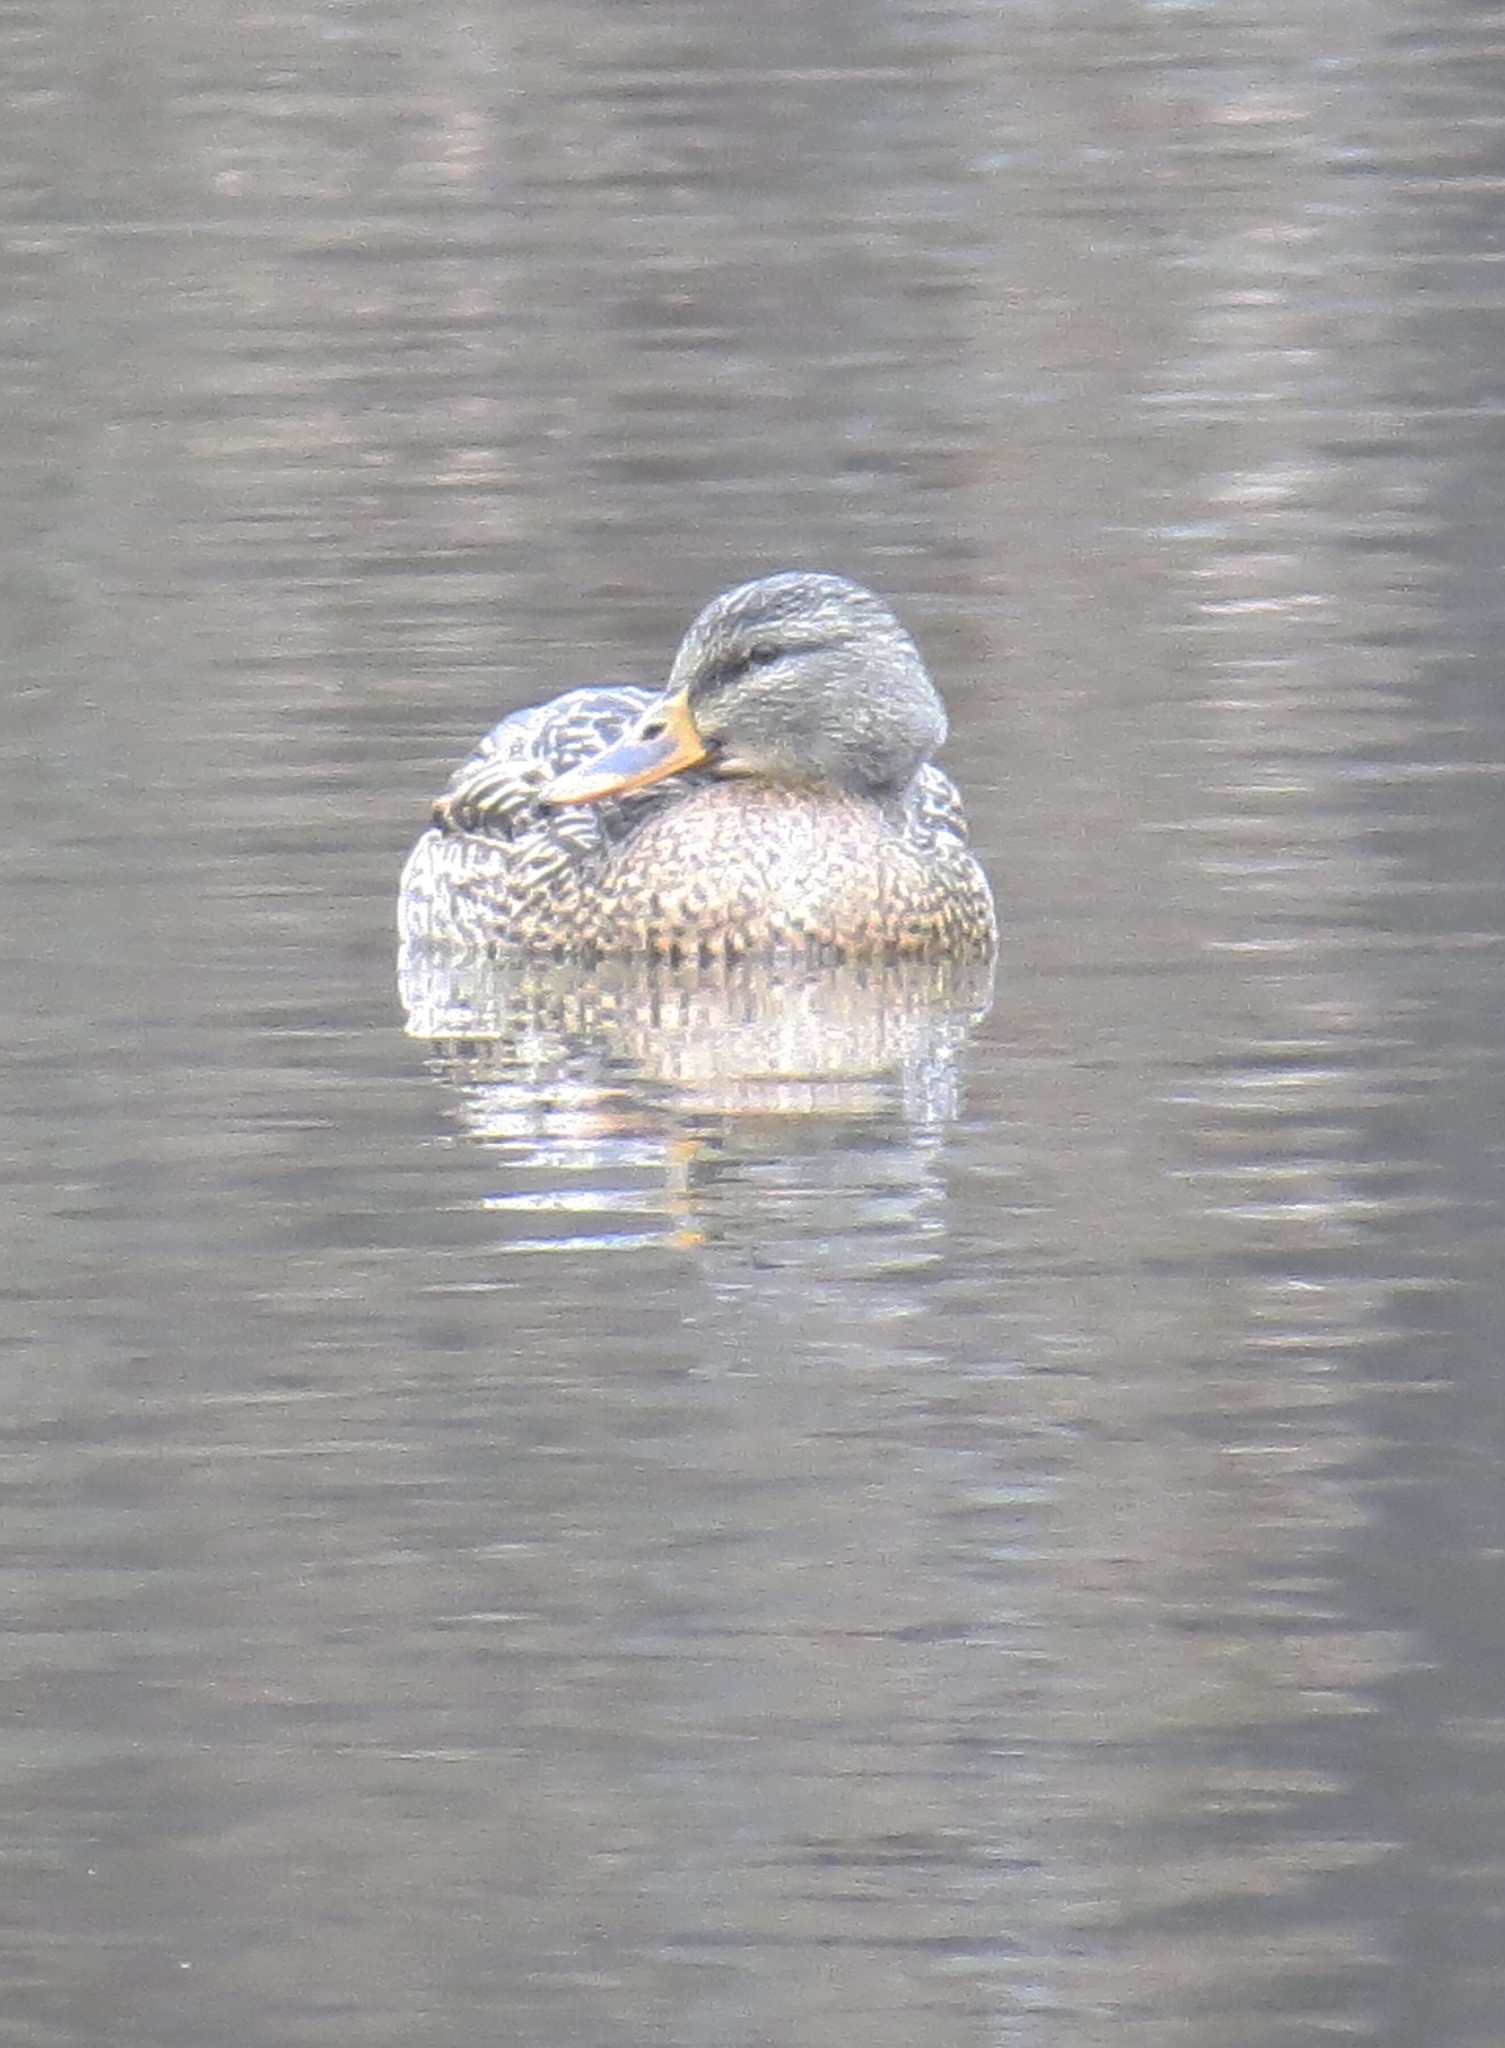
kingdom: Animalia
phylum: Chordata
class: Aves
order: Anseriformes
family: Anatidae
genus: Anas
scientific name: Anas platyrhynchos
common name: Mallard
